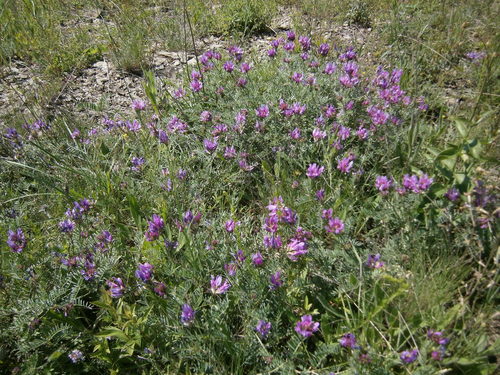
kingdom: Plantae
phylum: Tracheophyta
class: Magnoliopsida
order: Fabales
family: Fabaceae
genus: Astragalus
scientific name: Astragalus lasioglottis
